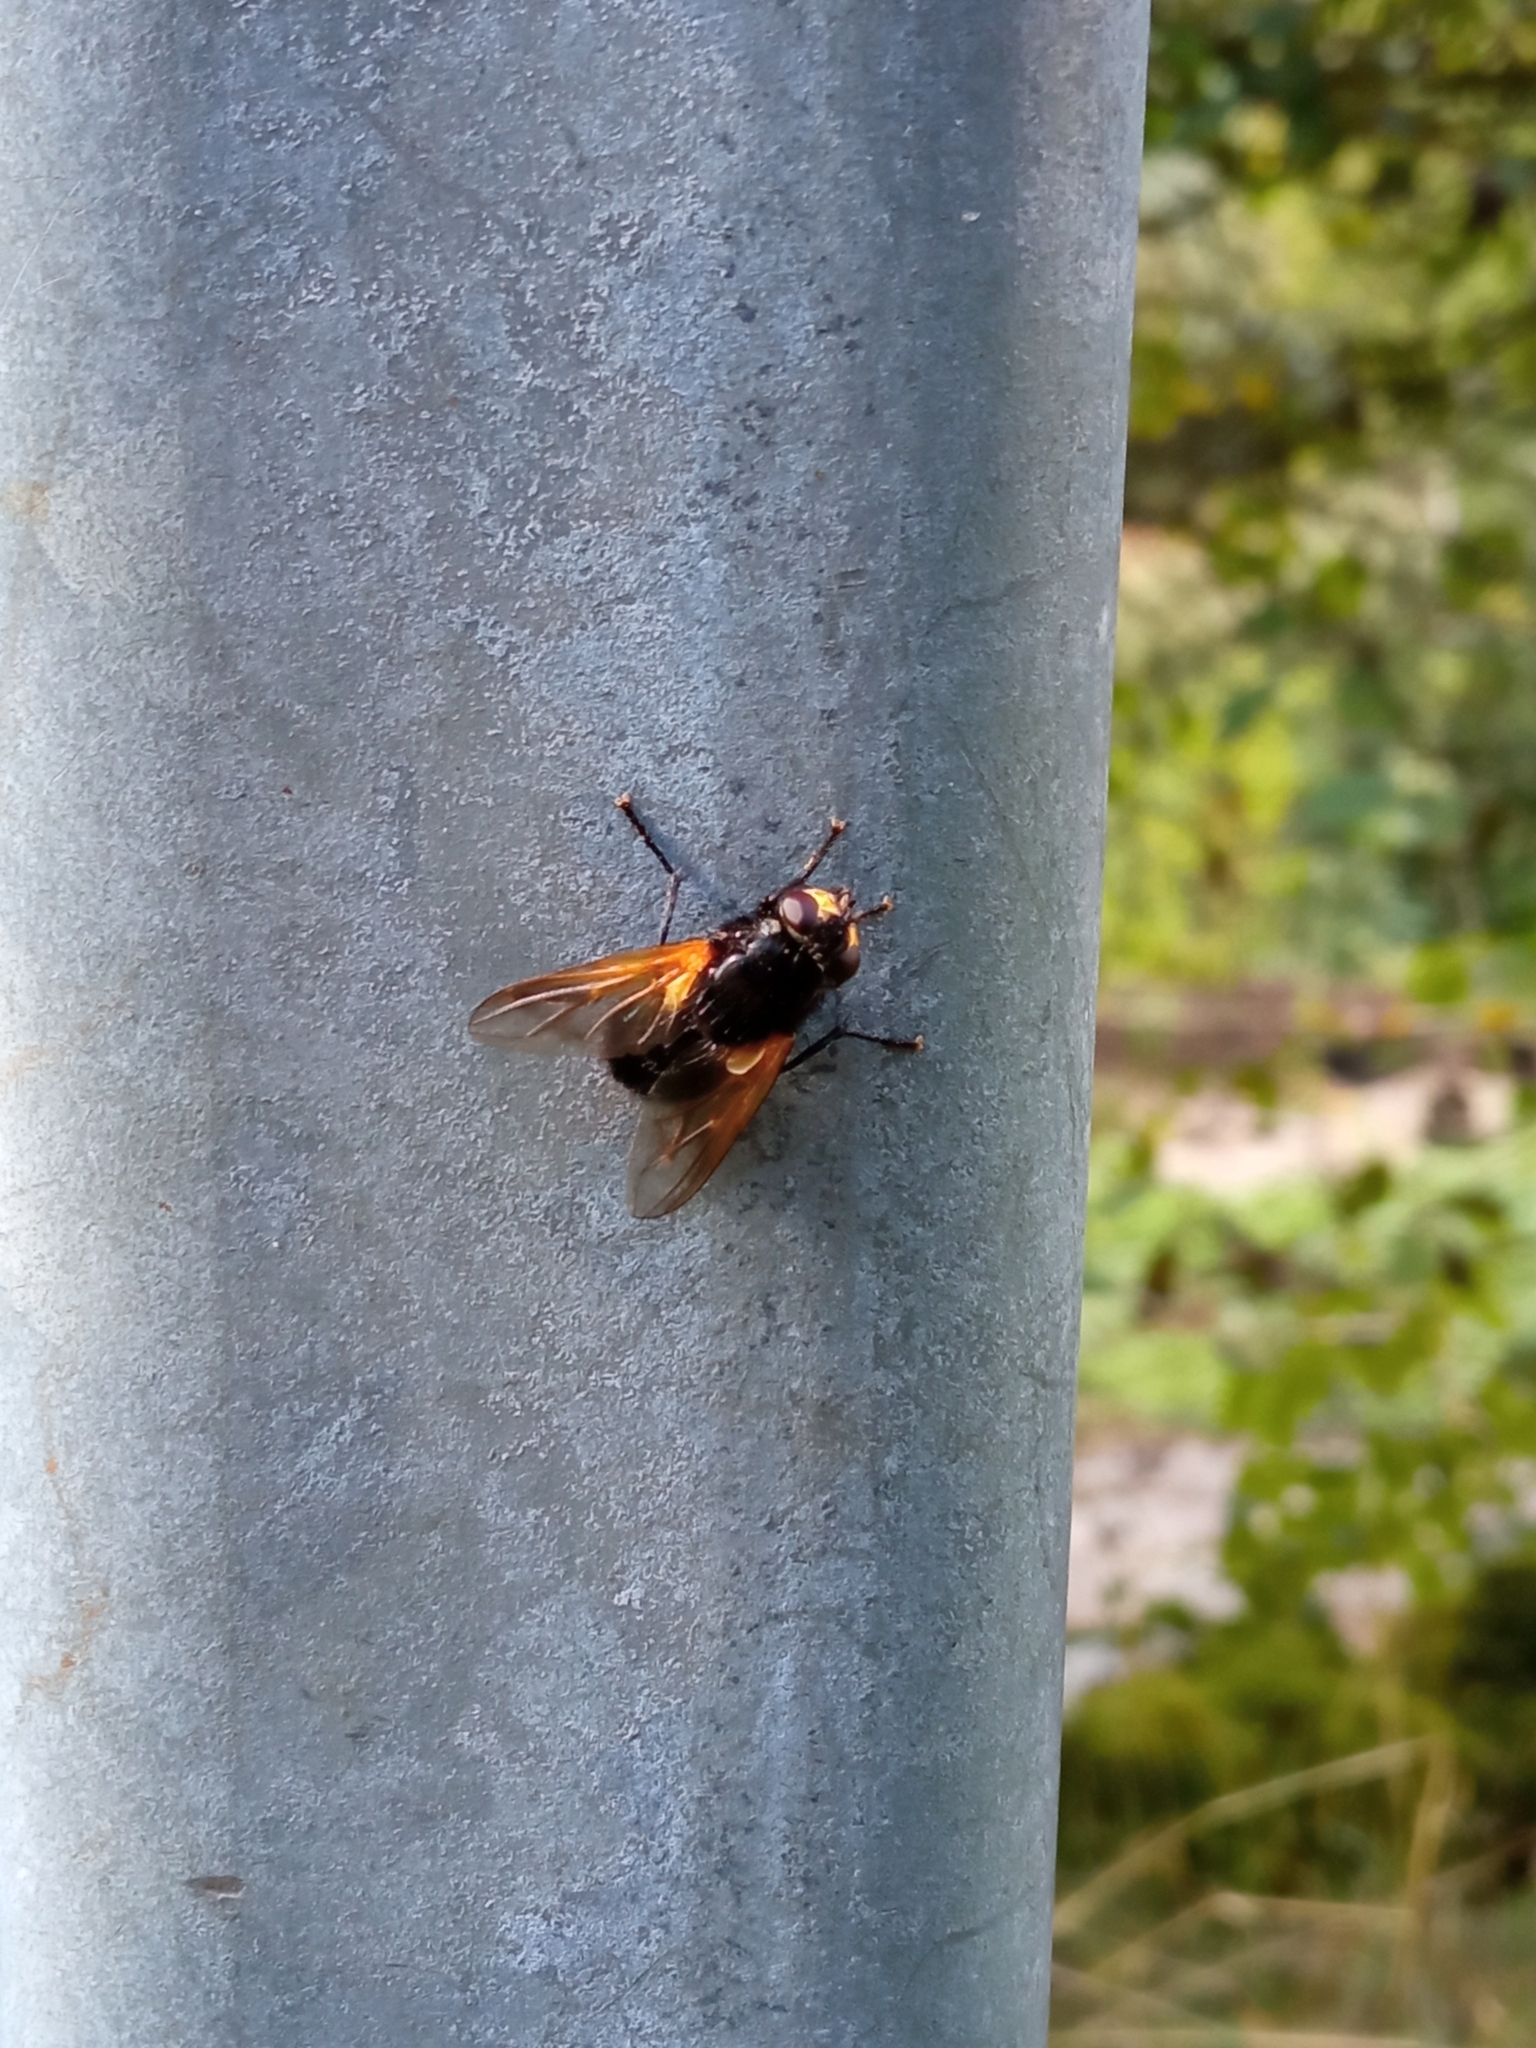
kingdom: Animalia
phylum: Arthropoda
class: Insecta
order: Diptera
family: Muscidae
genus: Mesembrina
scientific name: Mesembrina meridiana
